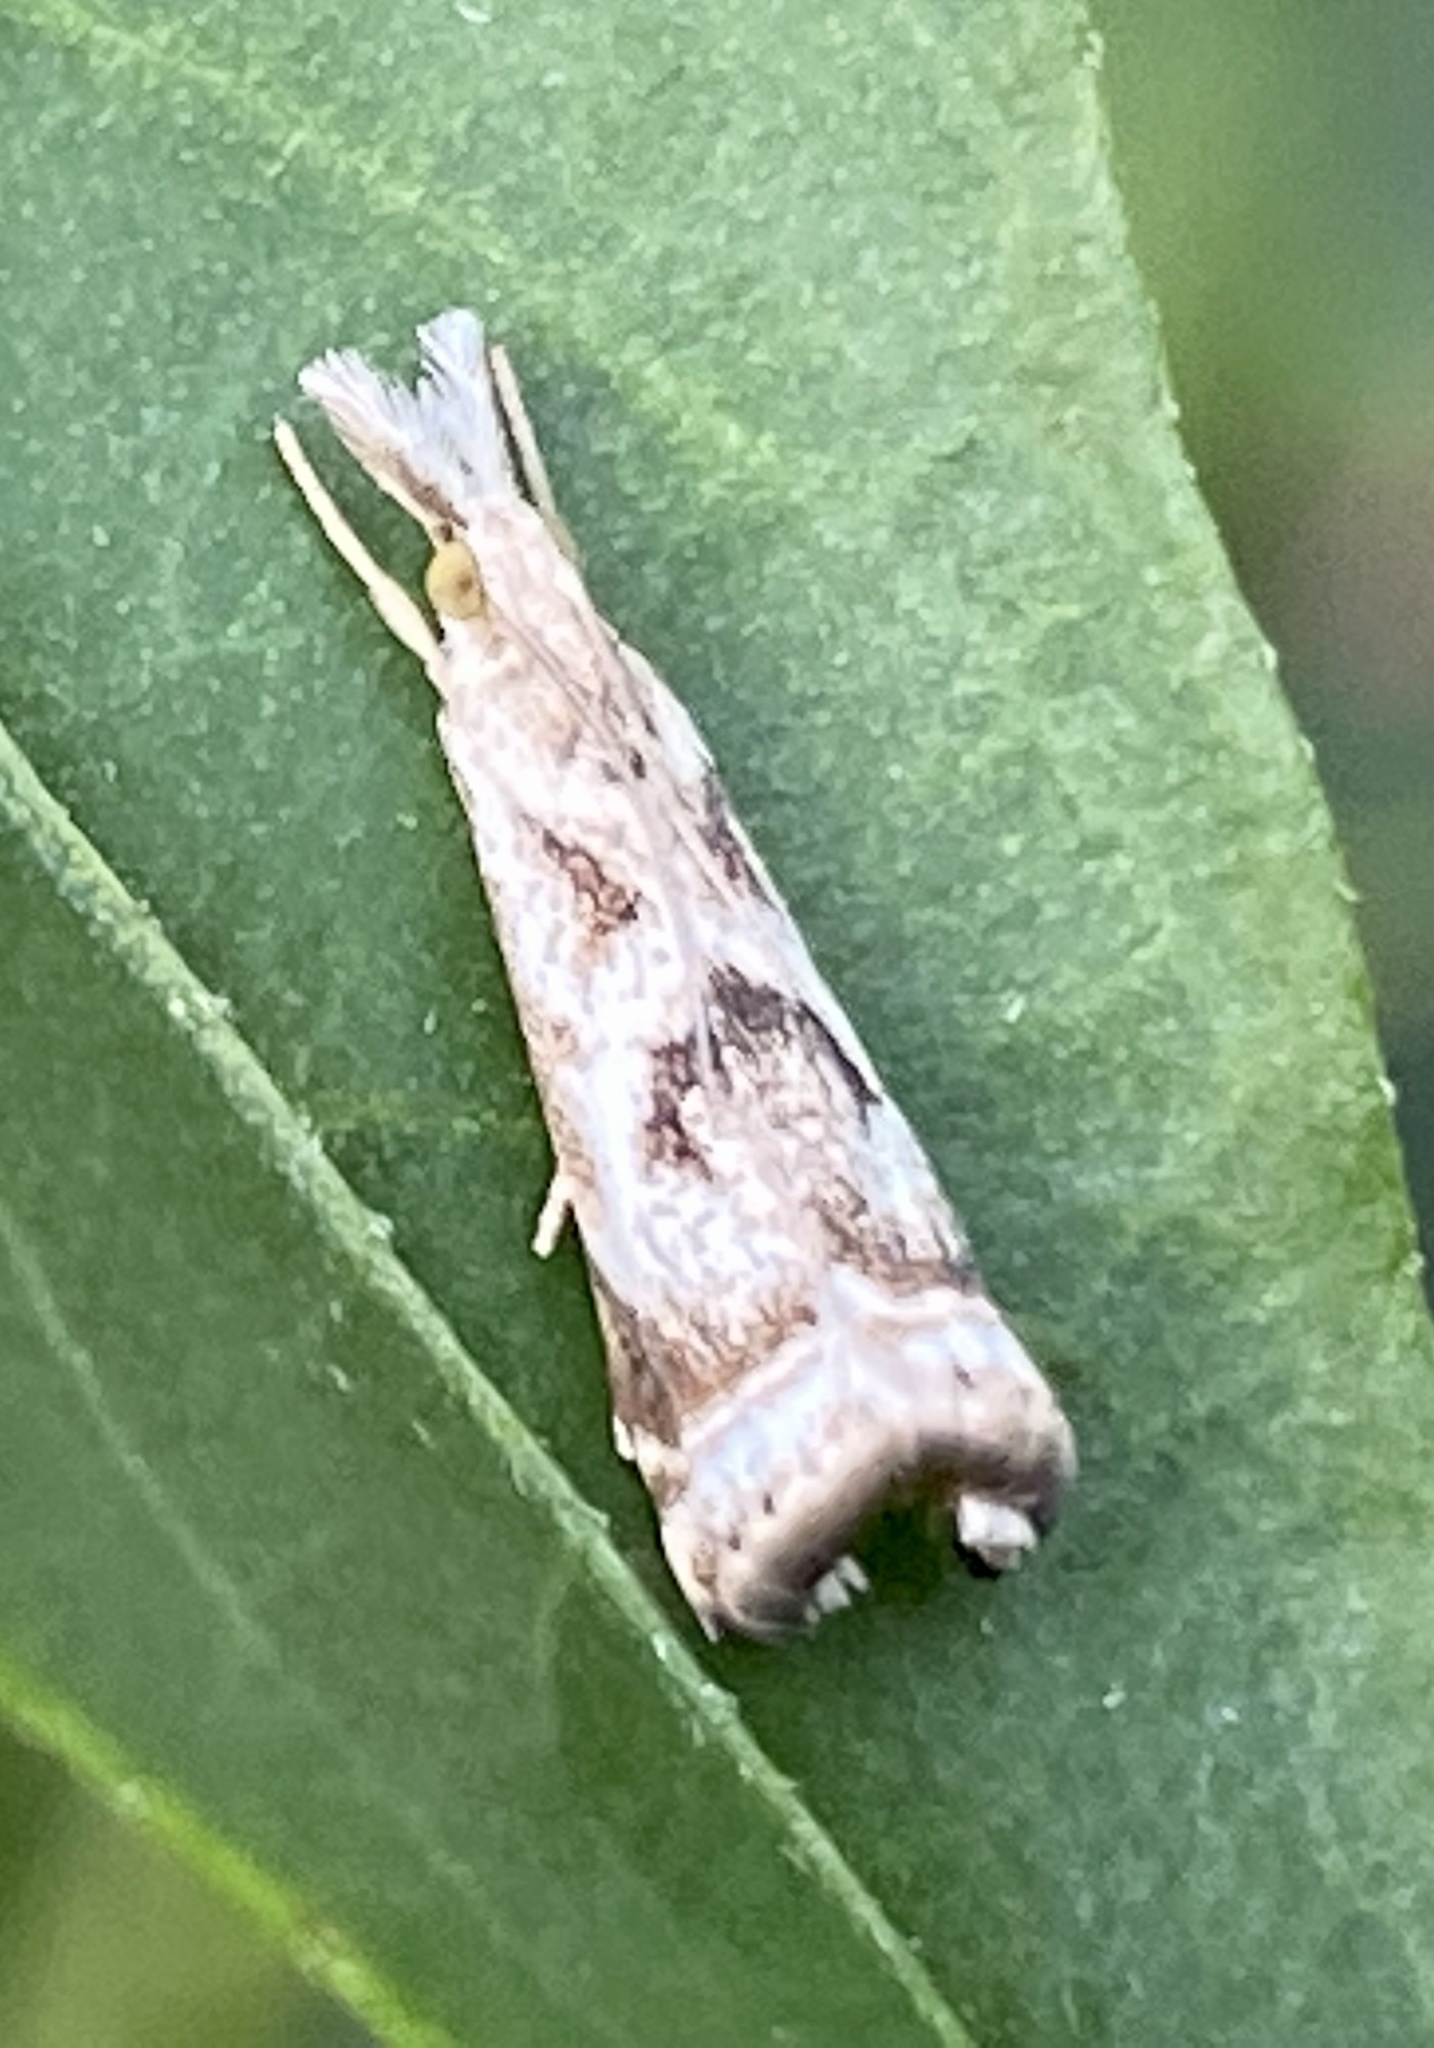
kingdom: Animalia
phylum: Arthropoda
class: Insecta
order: Lepidoptera
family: Crambidae
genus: Microcrambus
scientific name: Microcrambus elegans
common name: Elegant grass-veneer
